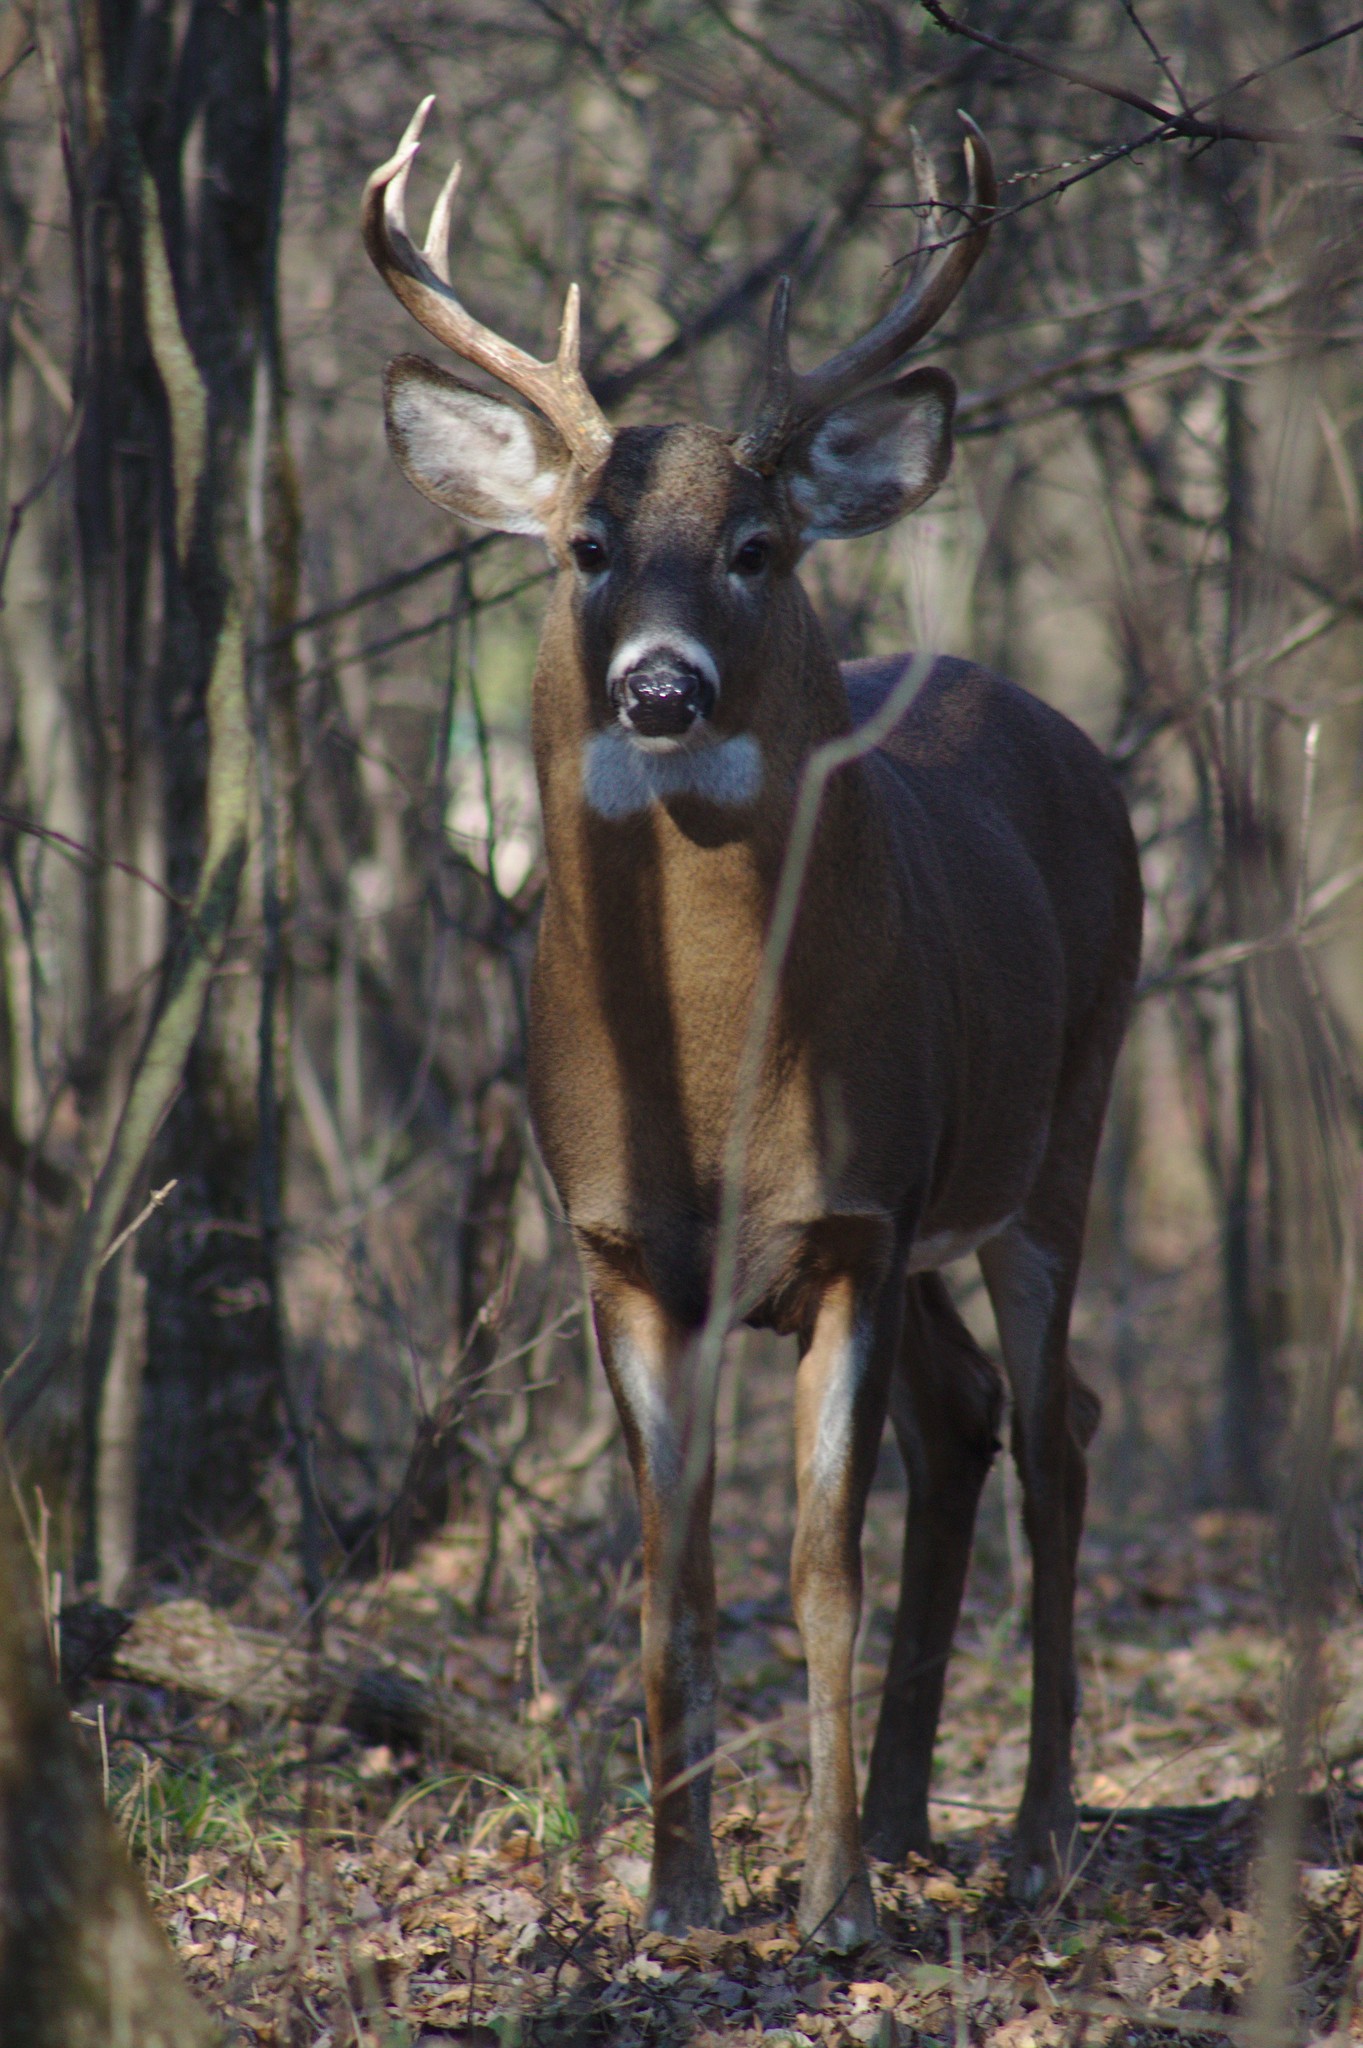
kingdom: Animalia
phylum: Chordata
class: Mammalia
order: Artiodactyla
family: Cervidae
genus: Odocoileus
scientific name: Odocoileus virginianus
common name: White-tailed deer
